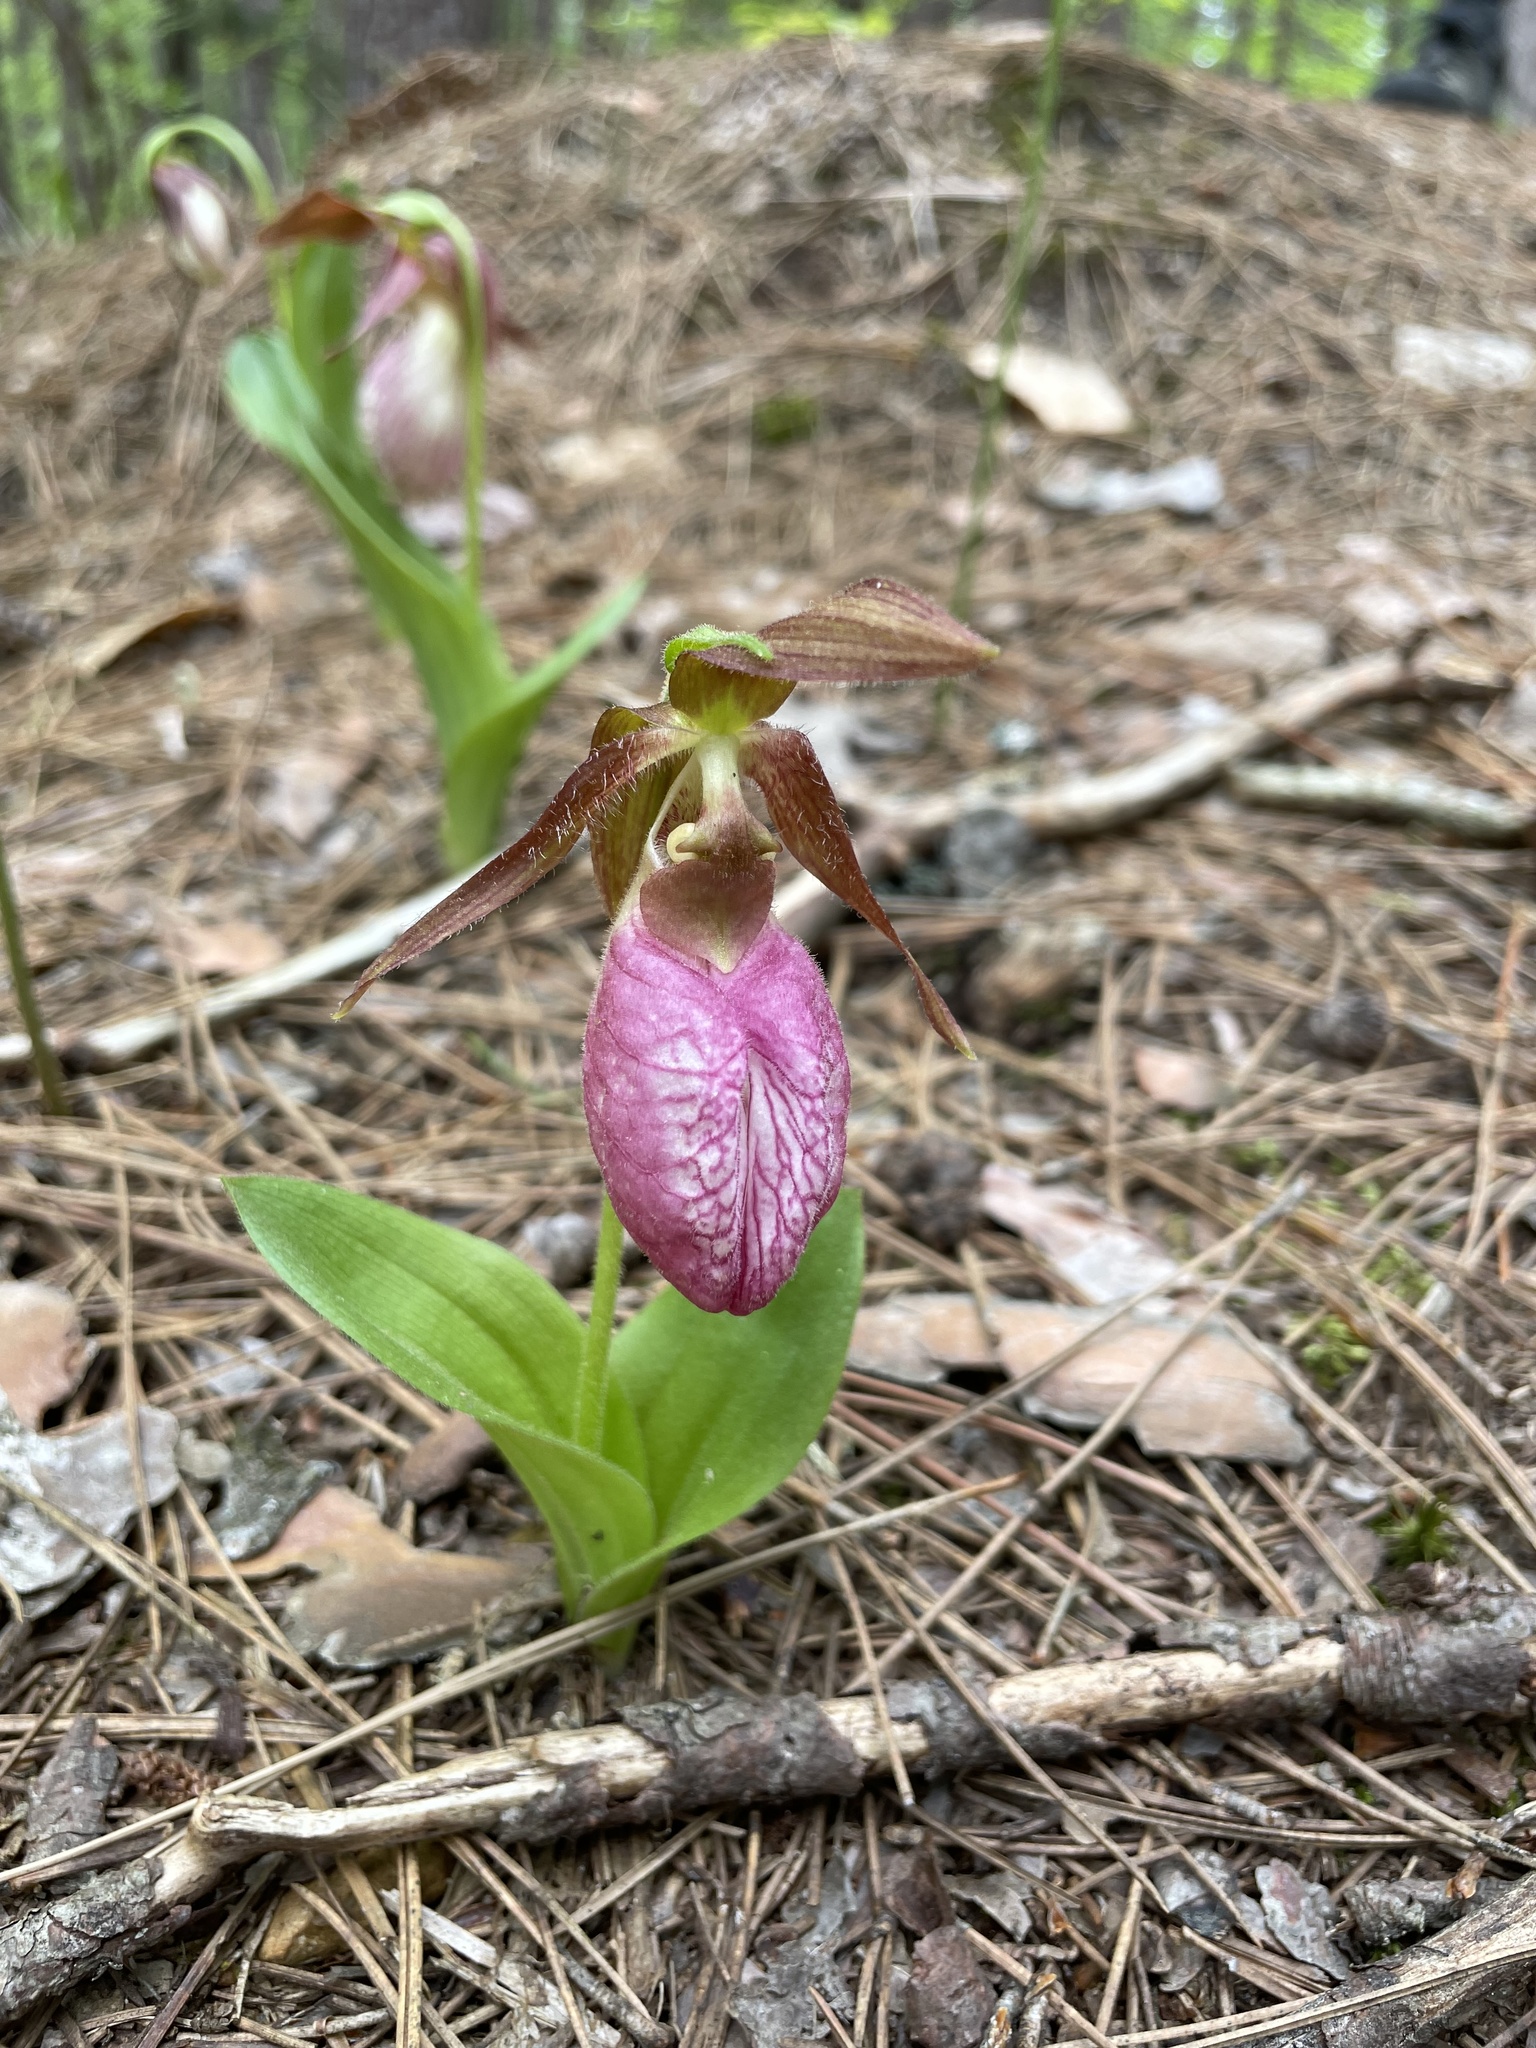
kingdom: Plantae
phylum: Tracheophyta
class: Liliopsida
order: Asparagales
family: Orchidaceae
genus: Cypripedium
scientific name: Cypripedium acaule
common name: Pink lady's-slipper
